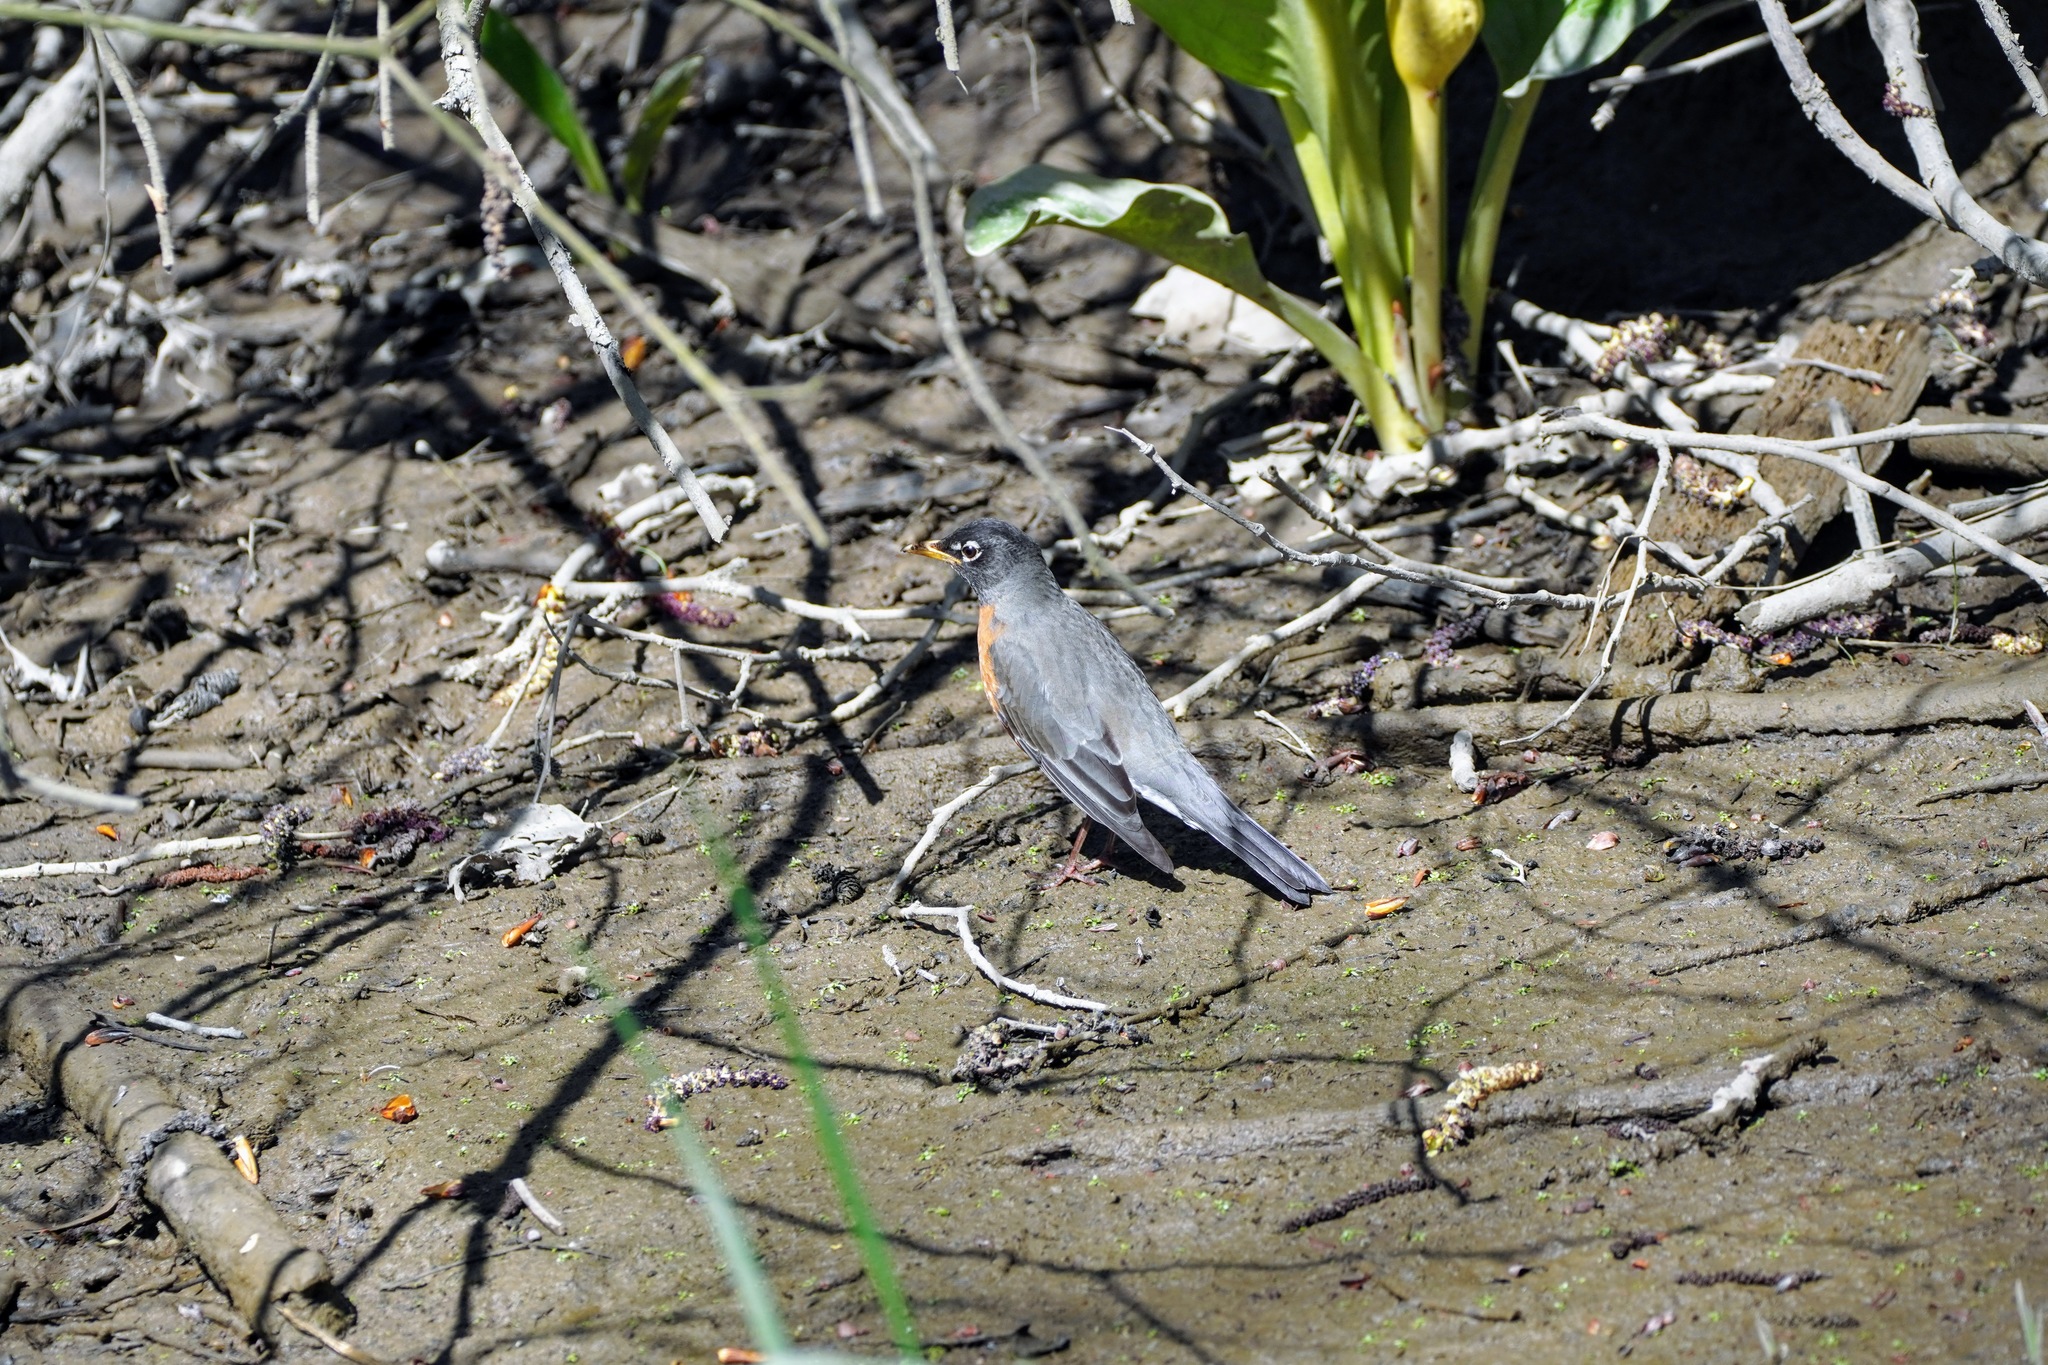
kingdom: Animalia
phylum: Chordata
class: Aves
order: Passeriformes
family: Turdidae
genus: Turdus
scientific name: Turdus migratorius
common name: American robin
